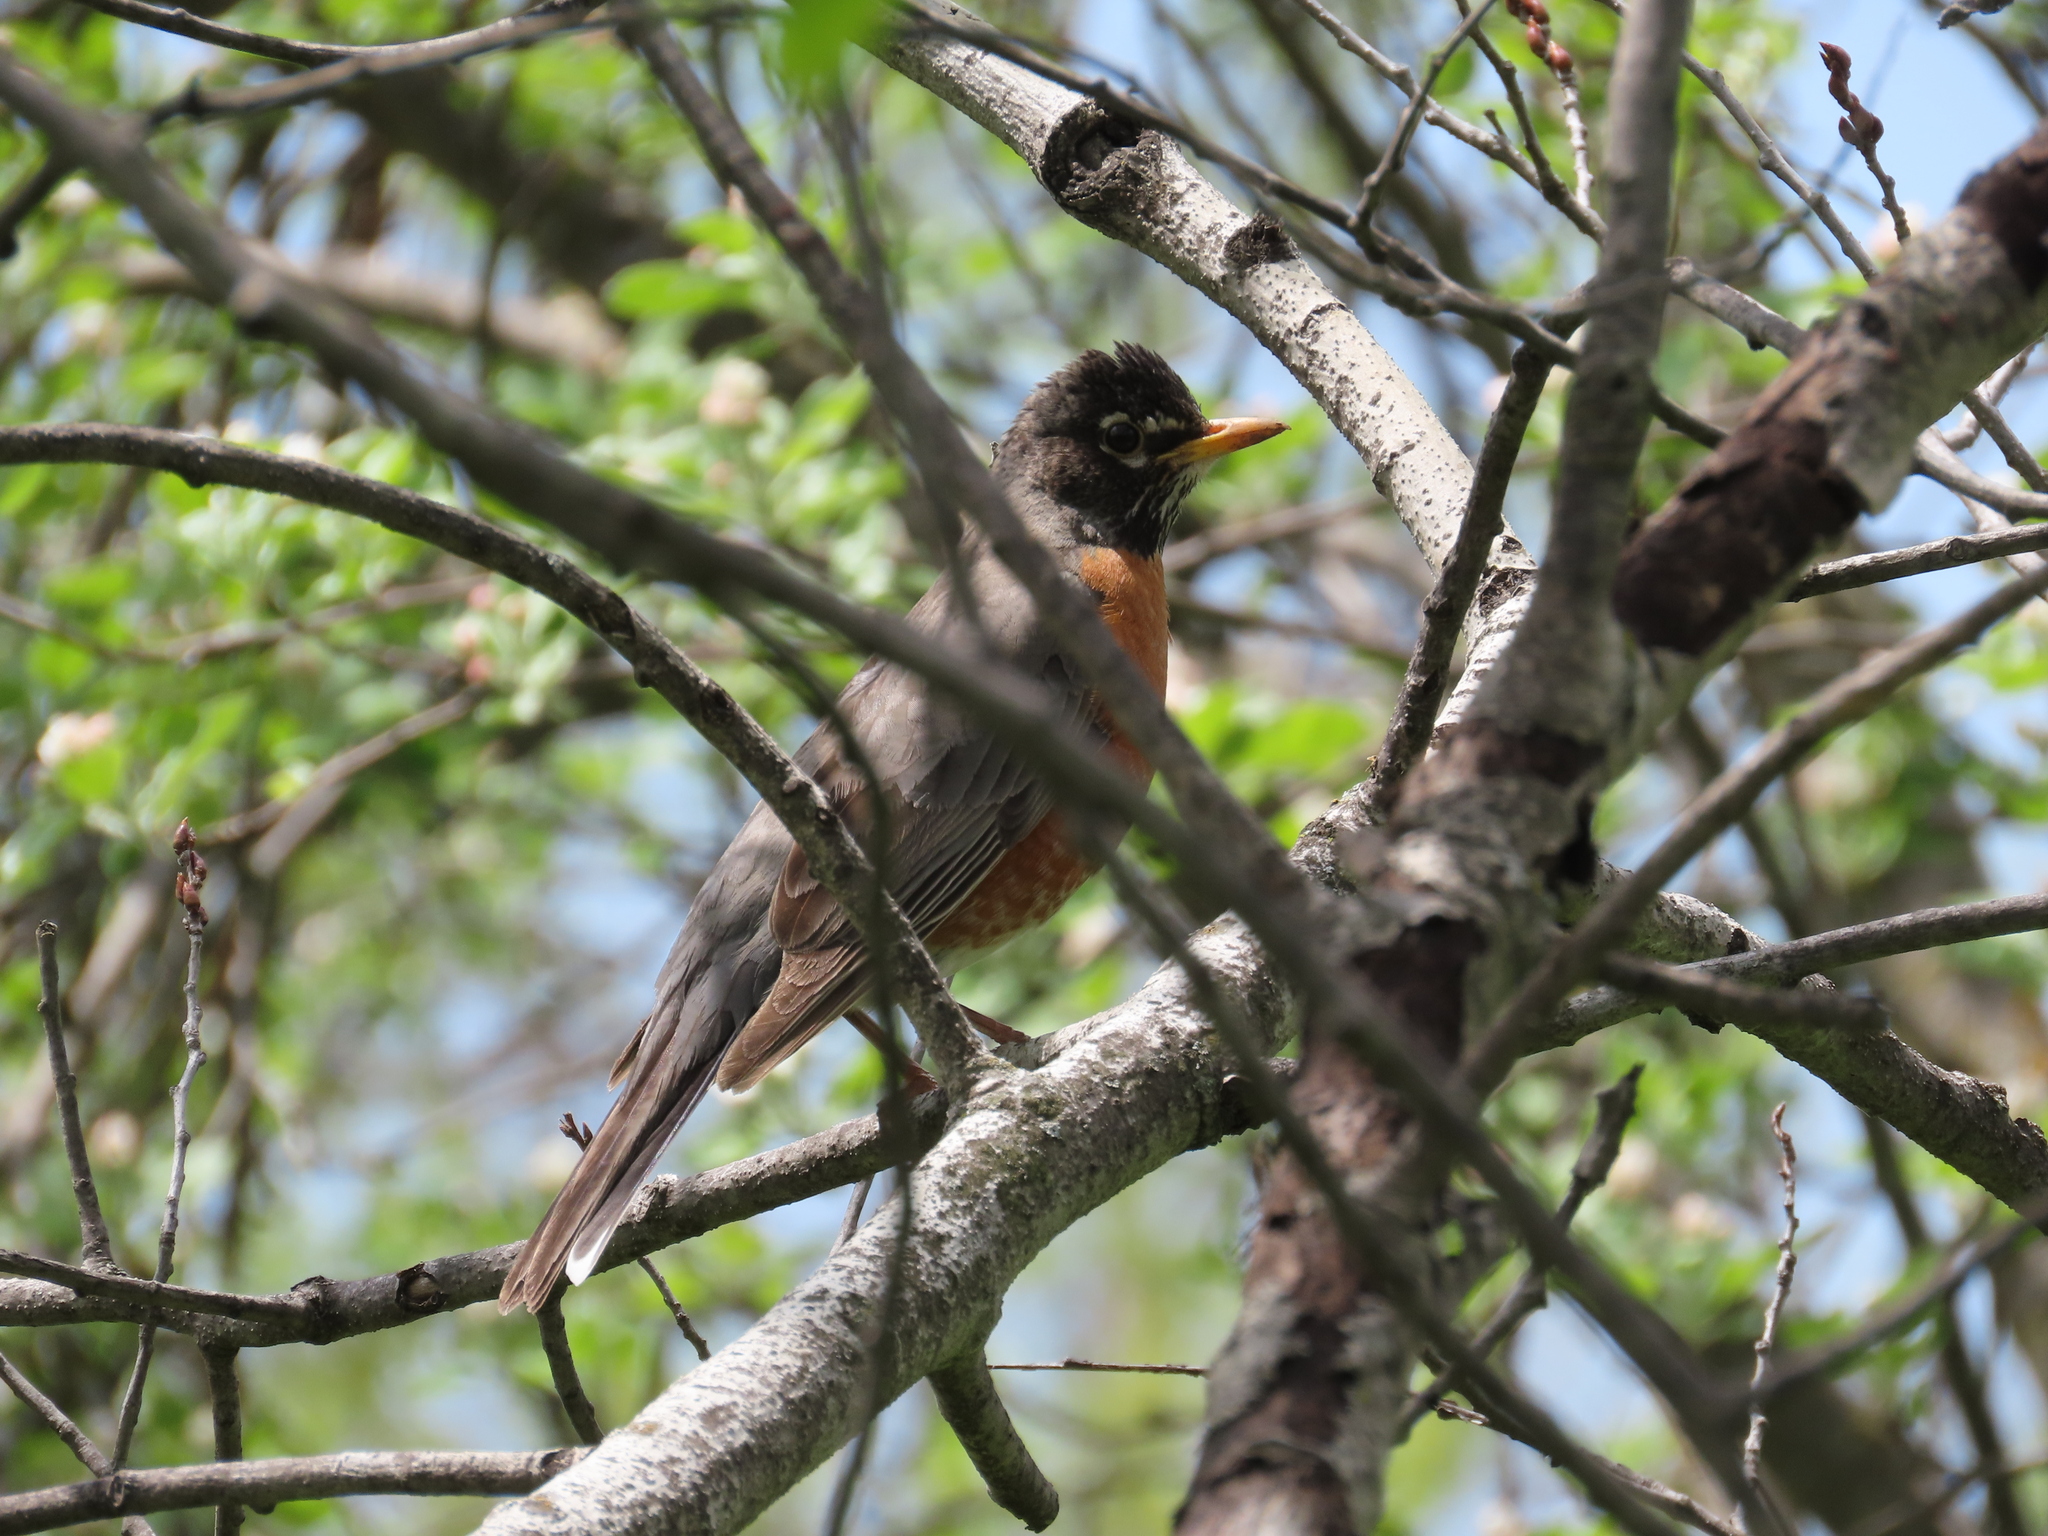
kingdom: Animalia
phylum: Chordata
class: Aves
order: Passeriformes
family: Turdidae
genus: Turdus
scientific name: Turdus migratorius
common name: American robin
